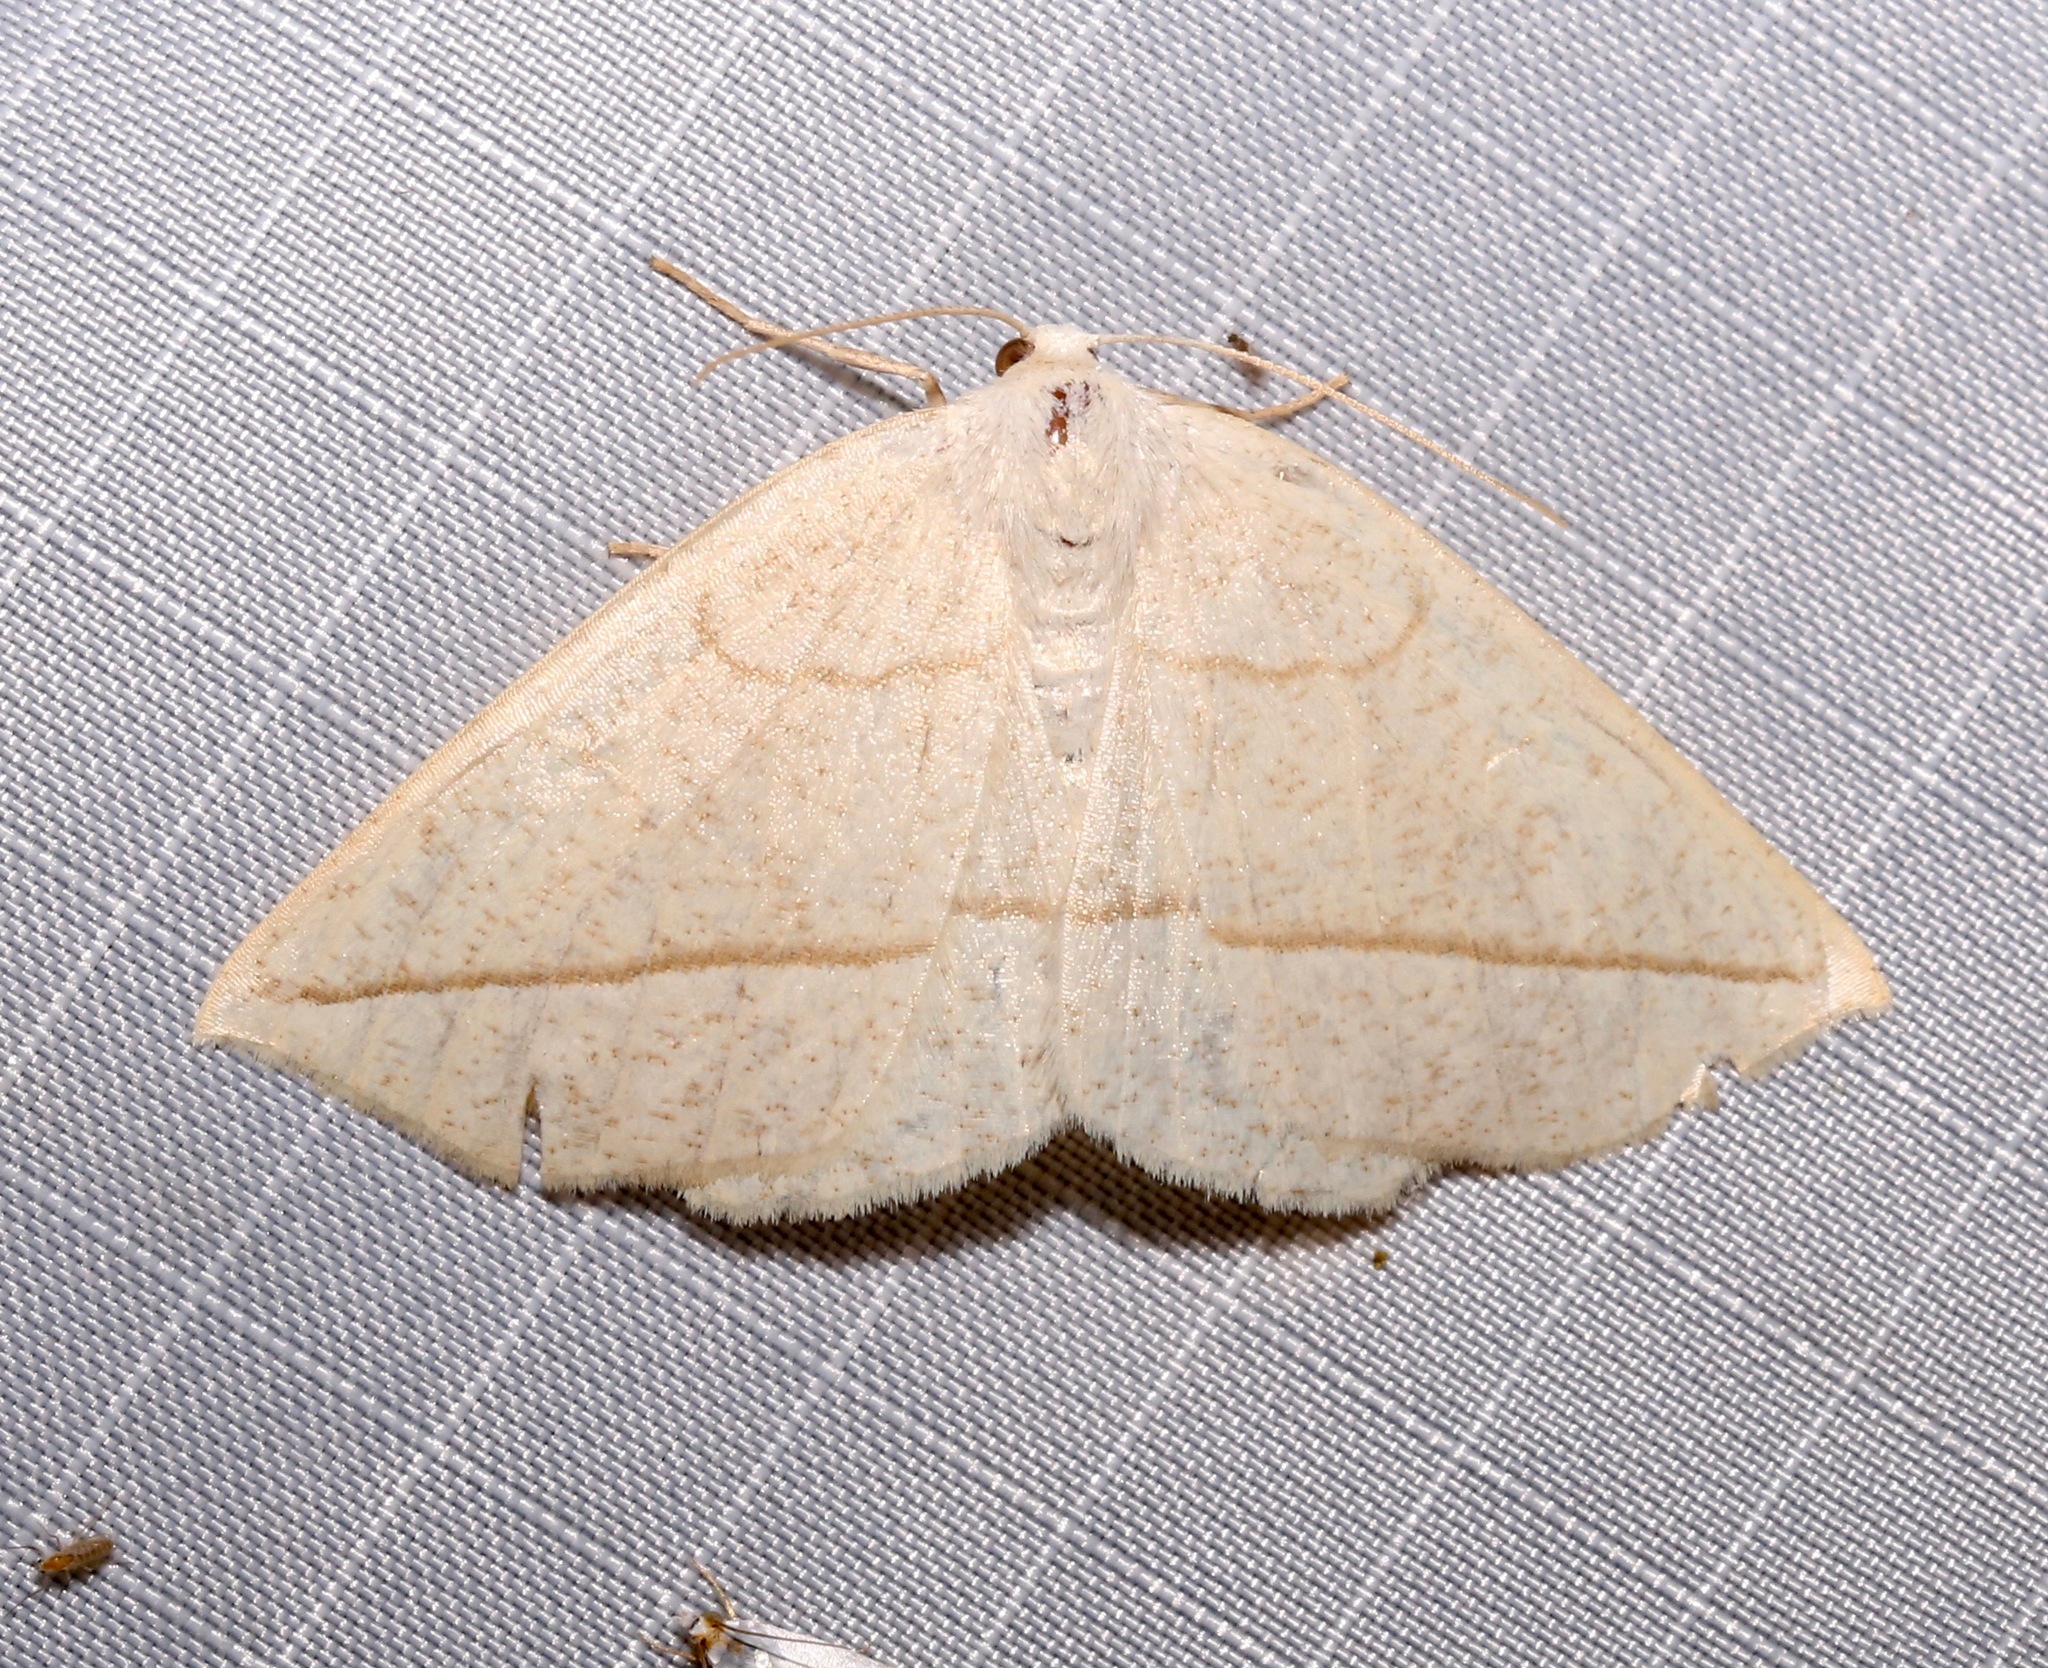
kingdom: Animalia
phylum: Arthropoda
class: Insecta
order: Lepidoptera
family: Geometridae
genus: Eusarca
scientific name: Eusarca confusaria
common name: Confused eusarca
